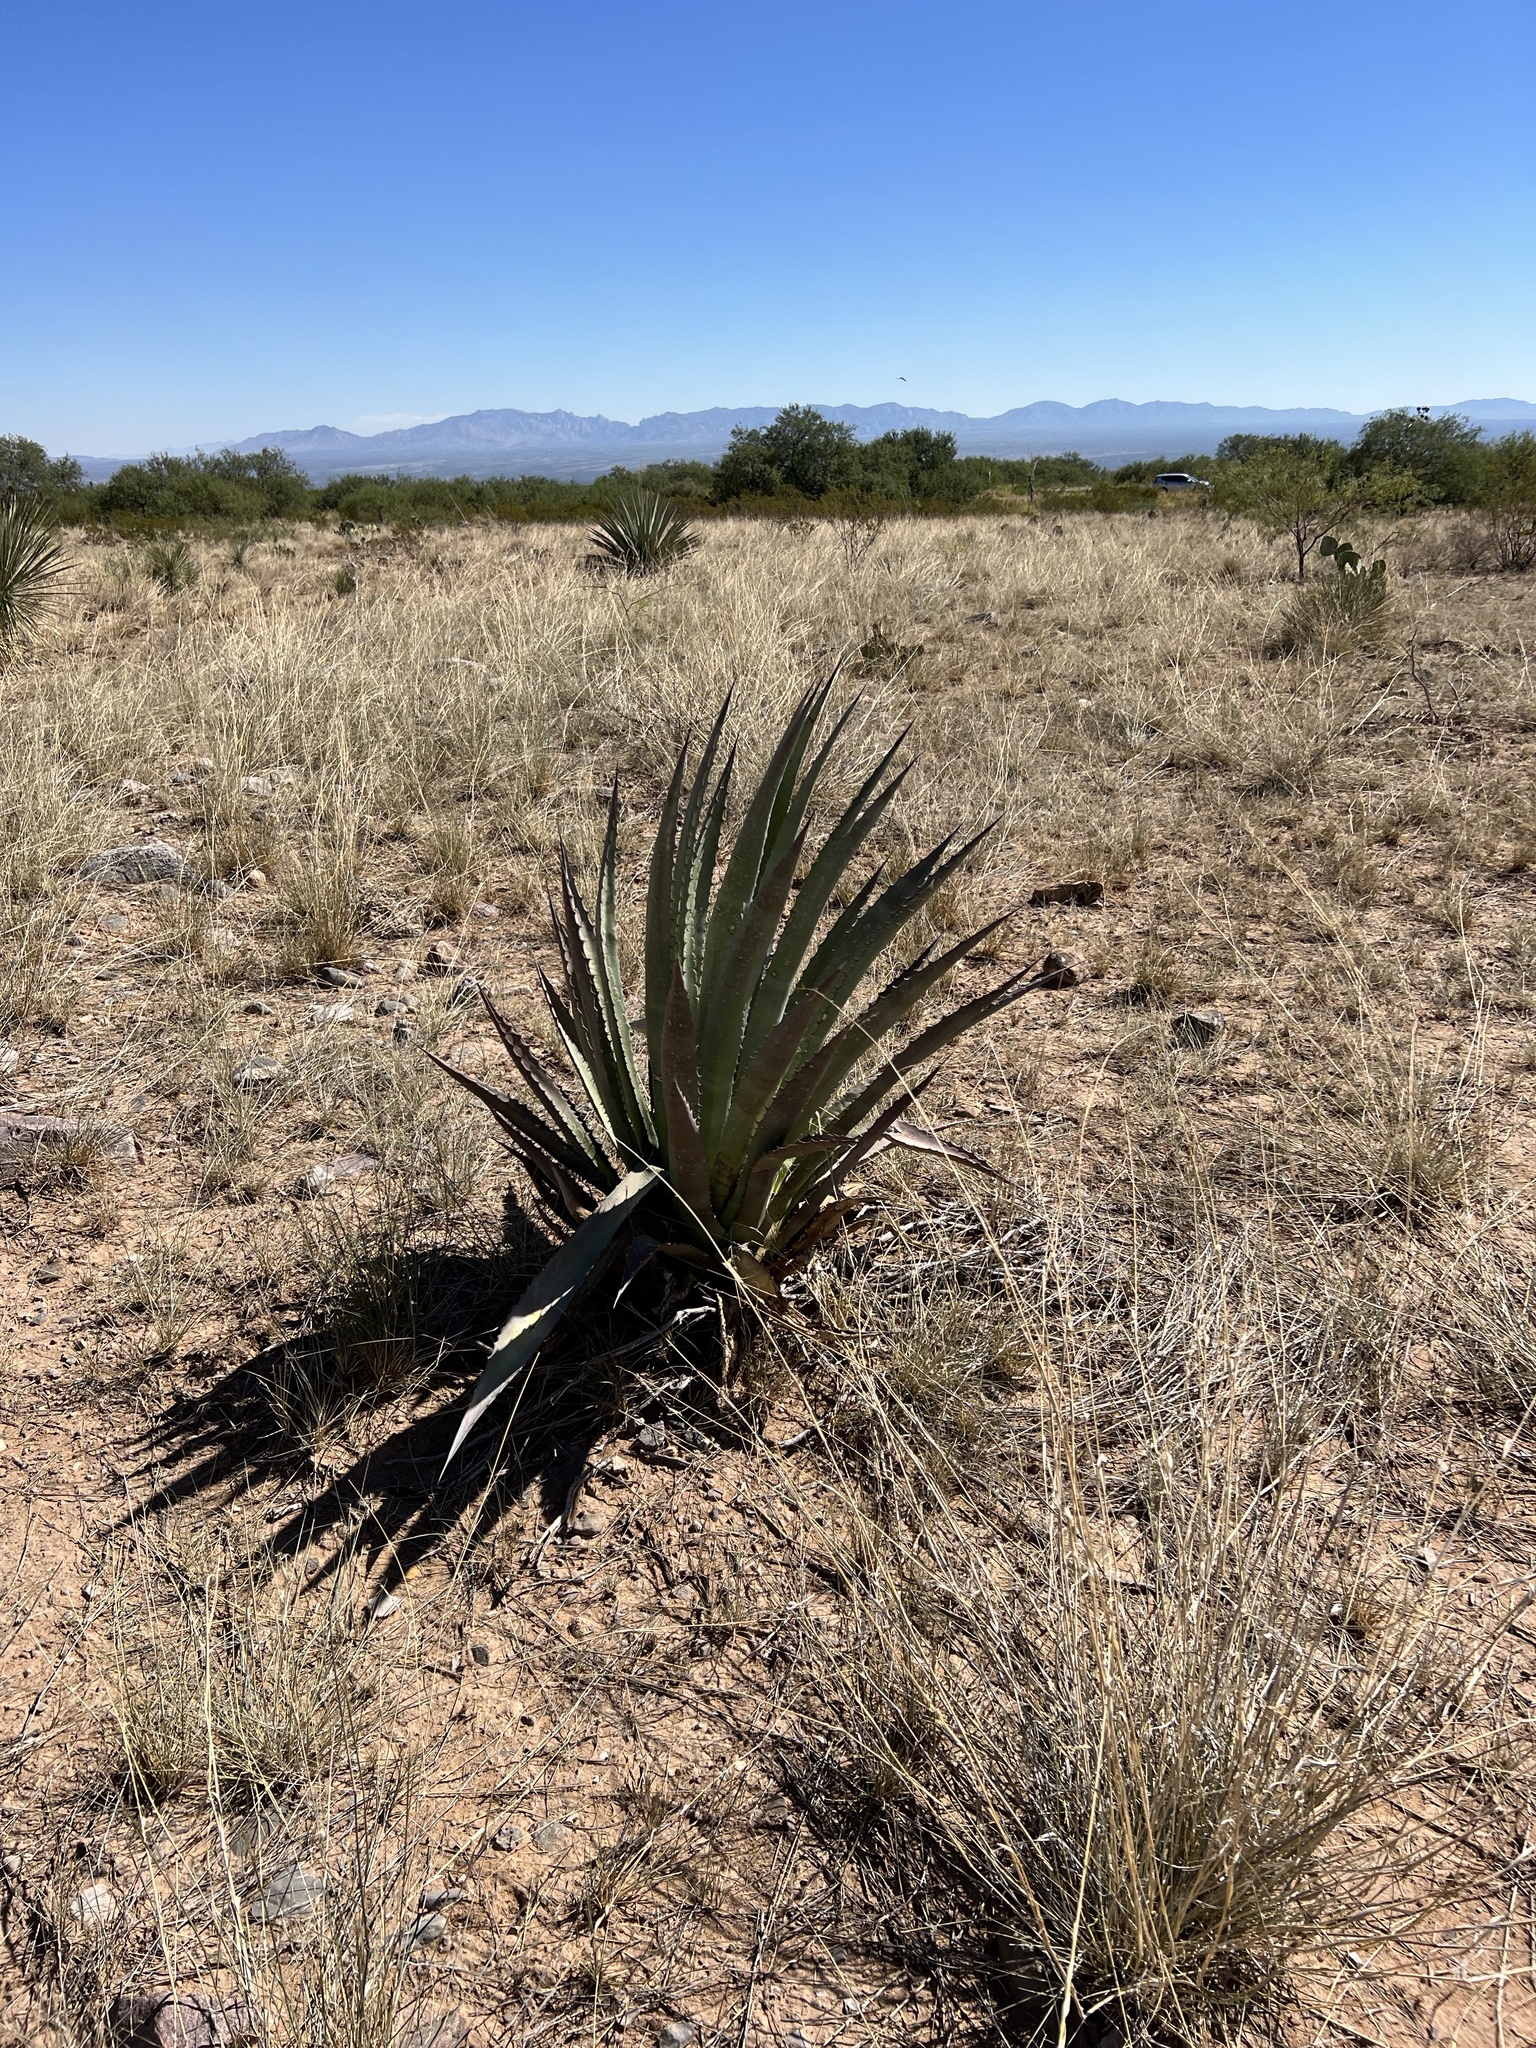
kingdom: Plantae
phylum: Tracheophyta
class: Liliopsida
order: Asparagales
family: Asparagaceae
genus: Agave
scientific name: Agave palmeri
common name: Palmer agave
